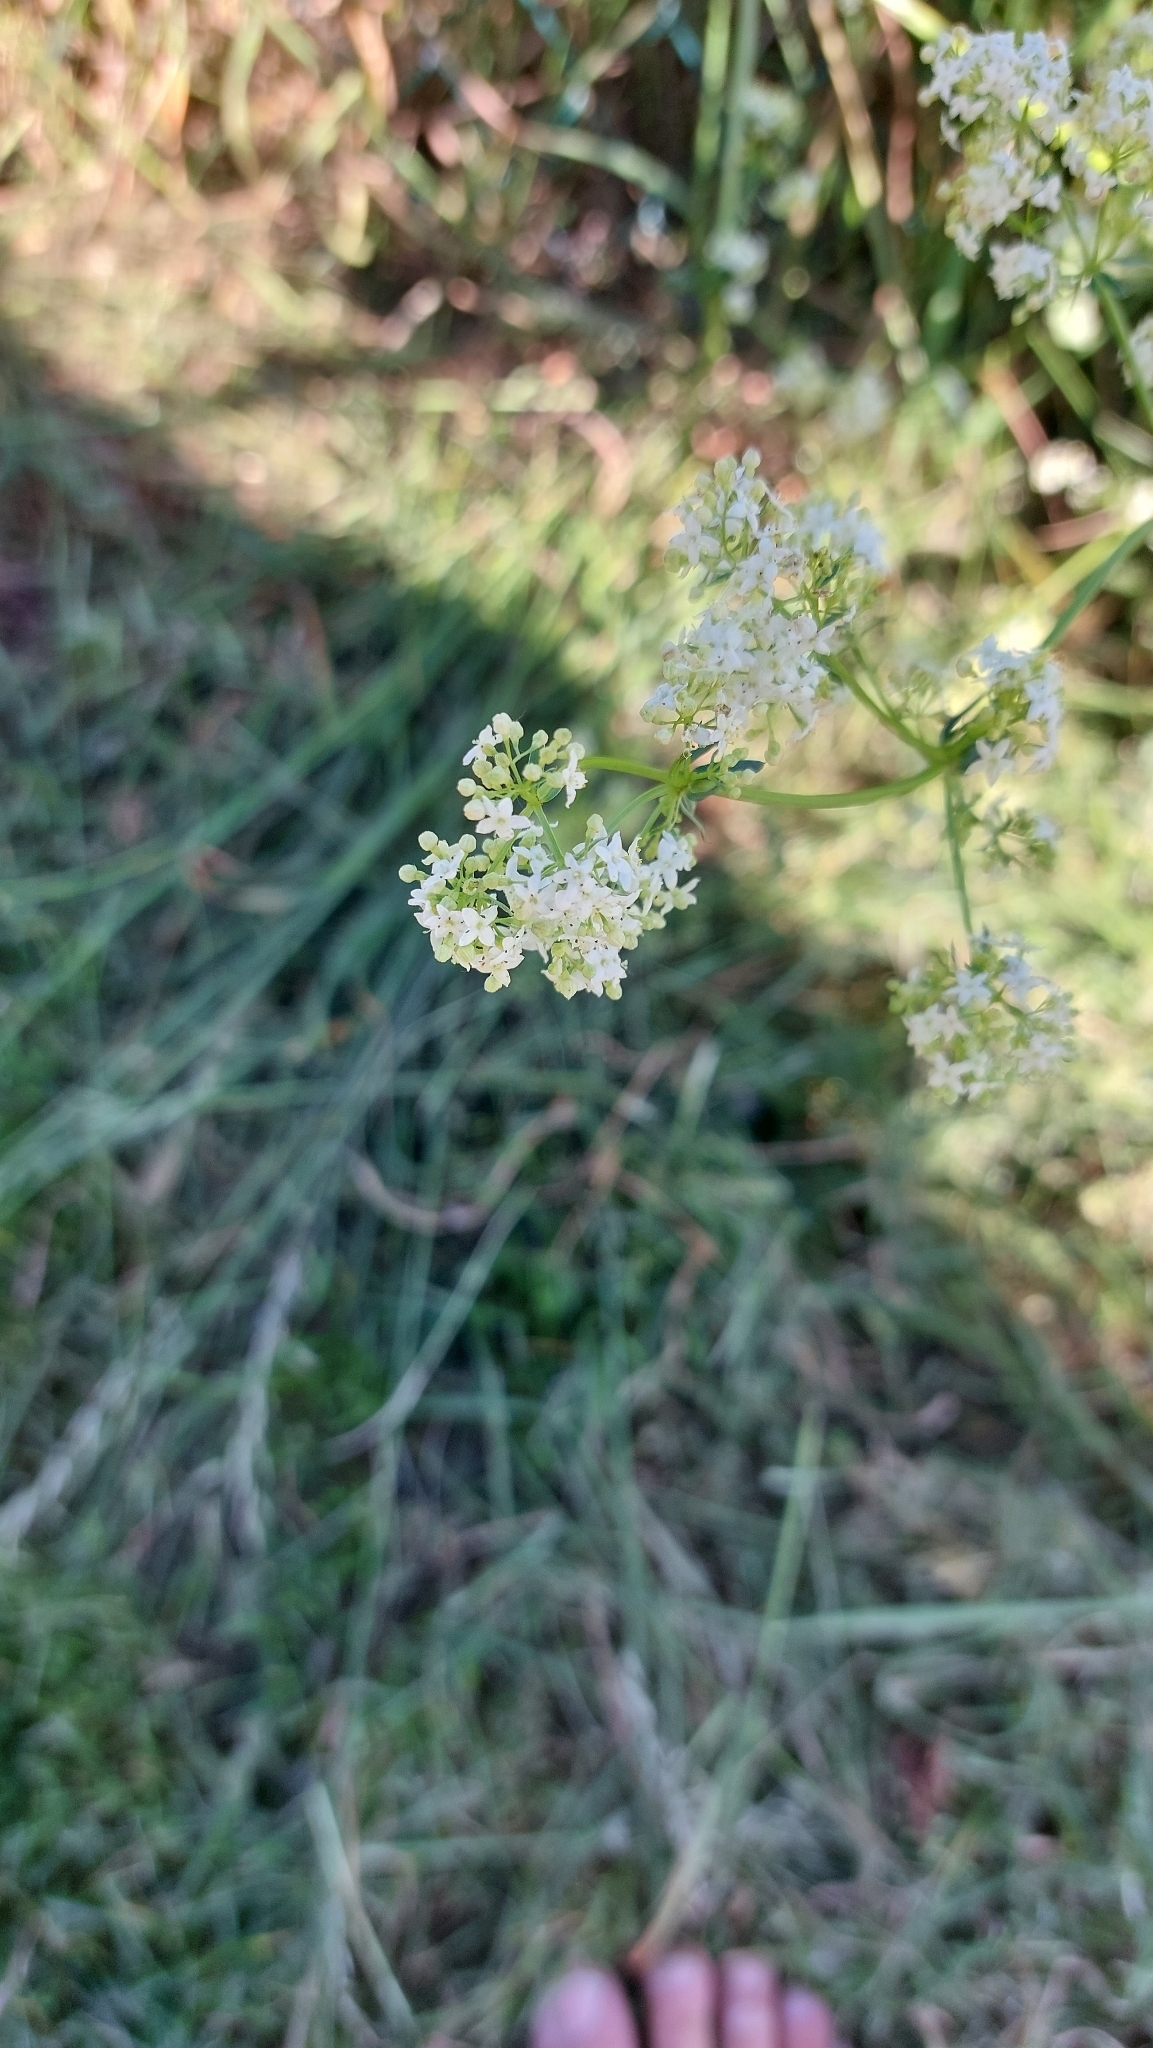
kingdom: Plantae
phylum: Tracheophyta
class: Magnoliopsida
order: Gentianales
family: Rubiaceae
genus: Galium
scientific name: Galium album
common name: White bedstraw
